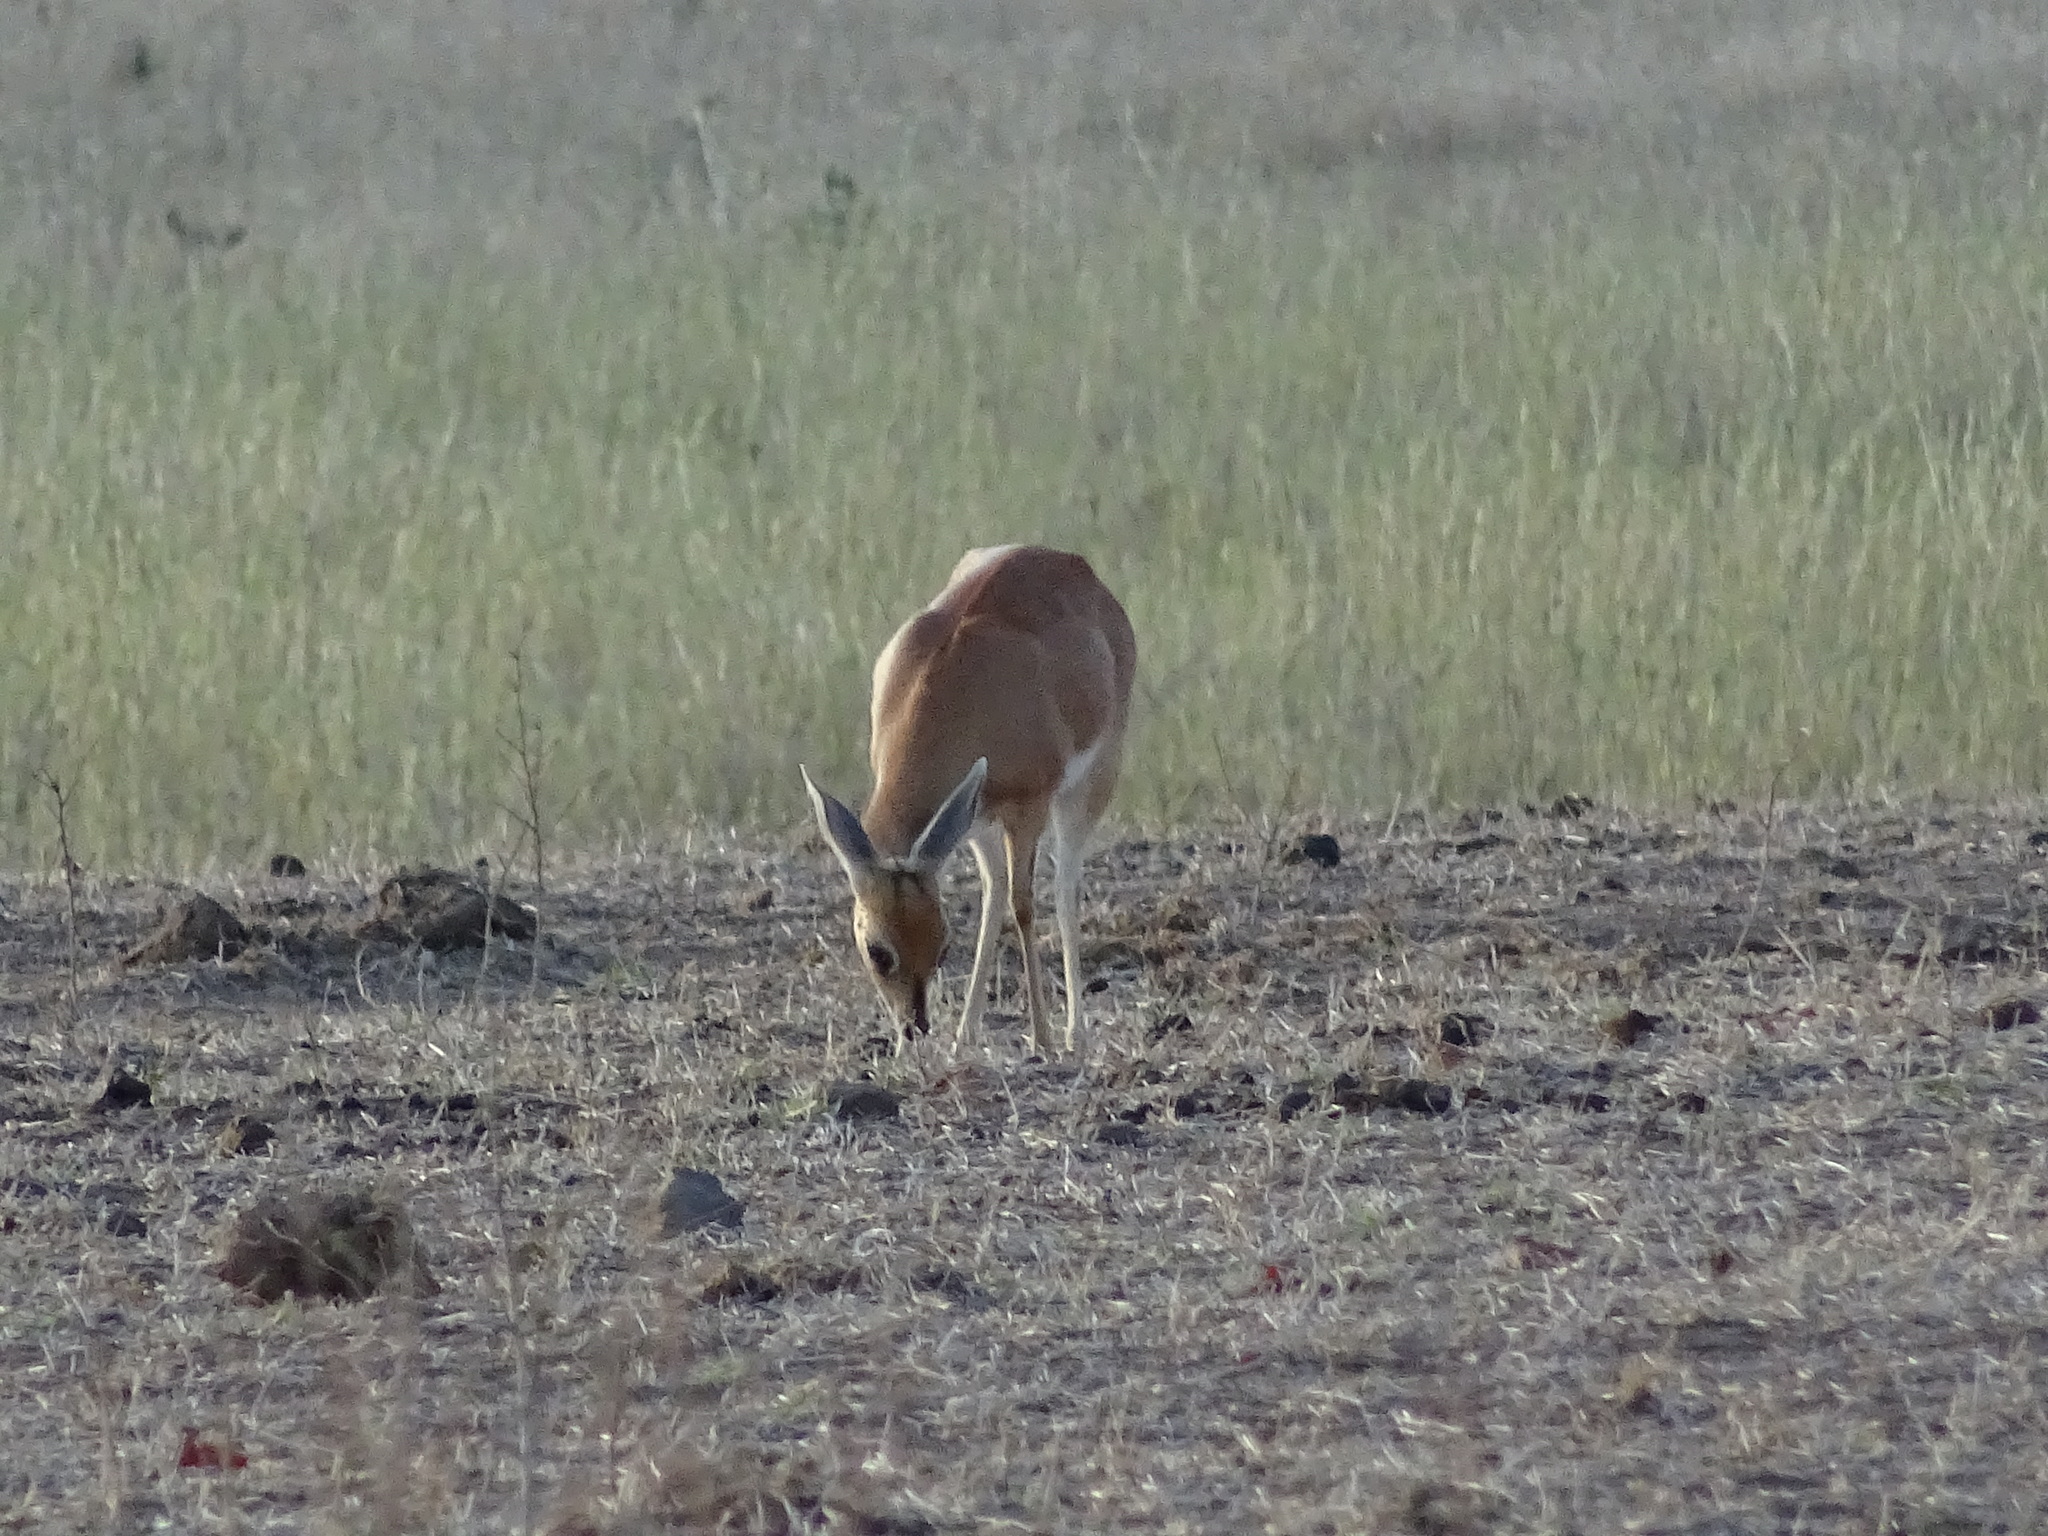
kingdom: Animalia
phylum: Chordata
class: Mammalia
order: Artiodactyla
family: Bovidae
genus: Raphicerus
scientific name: Raphicerus campestris
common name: Steenbok
